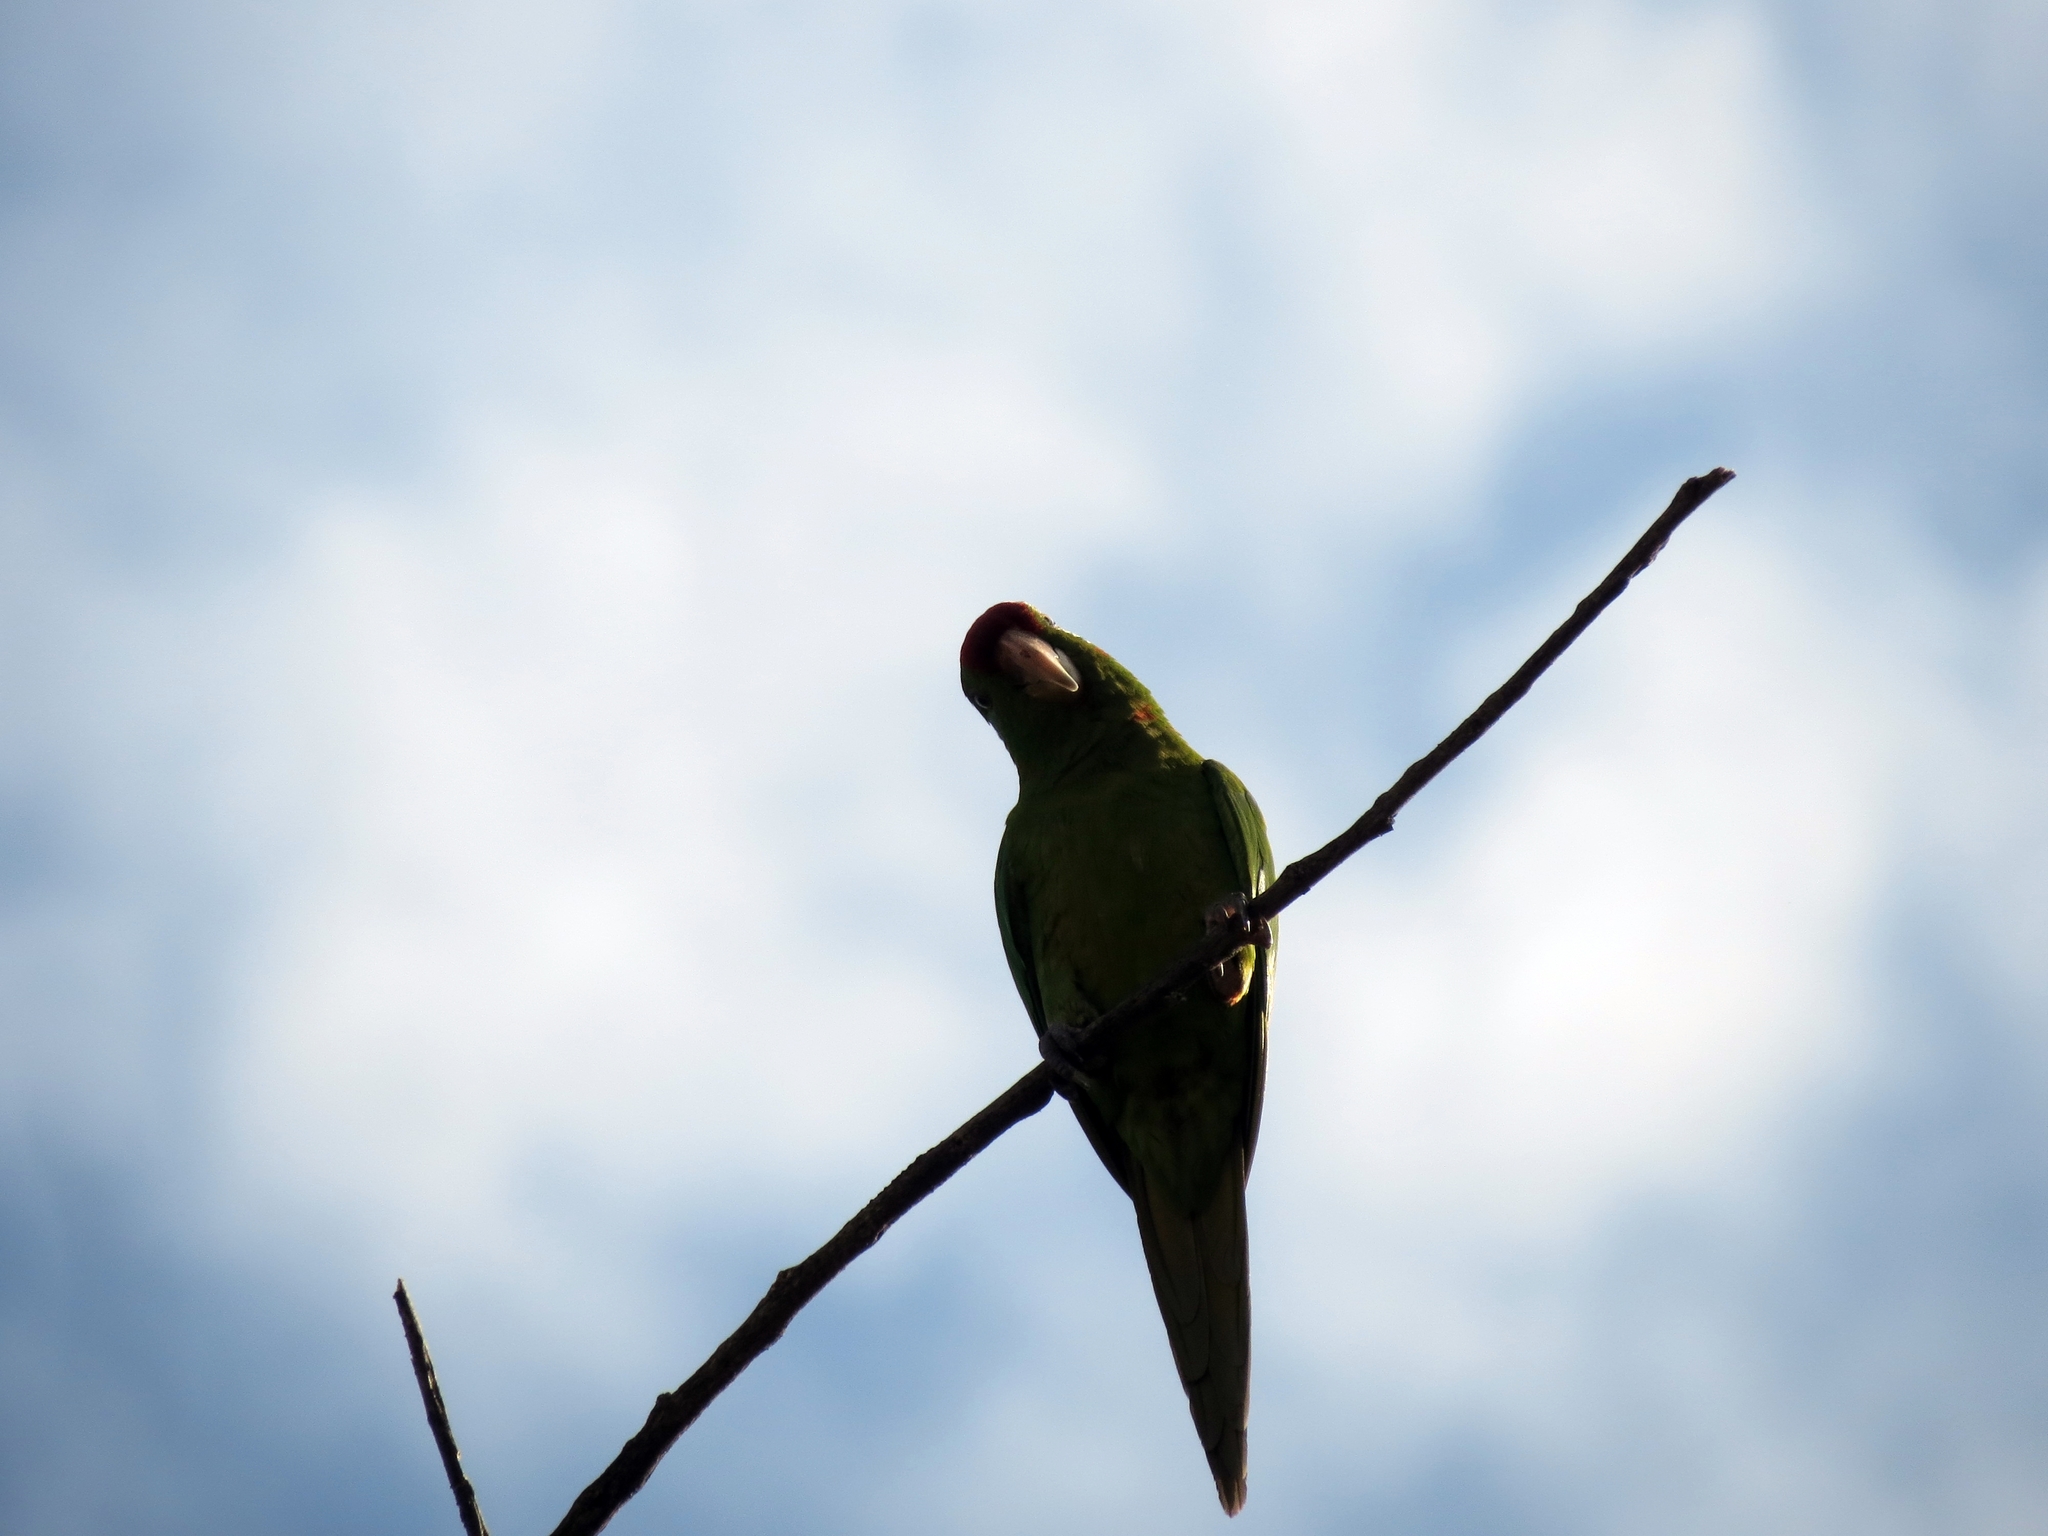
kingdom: Animalia
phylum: Chordata
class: Aves
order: Psittaciformes
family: Psittacidae
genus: Aratinga
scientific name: Aratinga wagleri
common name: Scarlet-fronted parakeet
